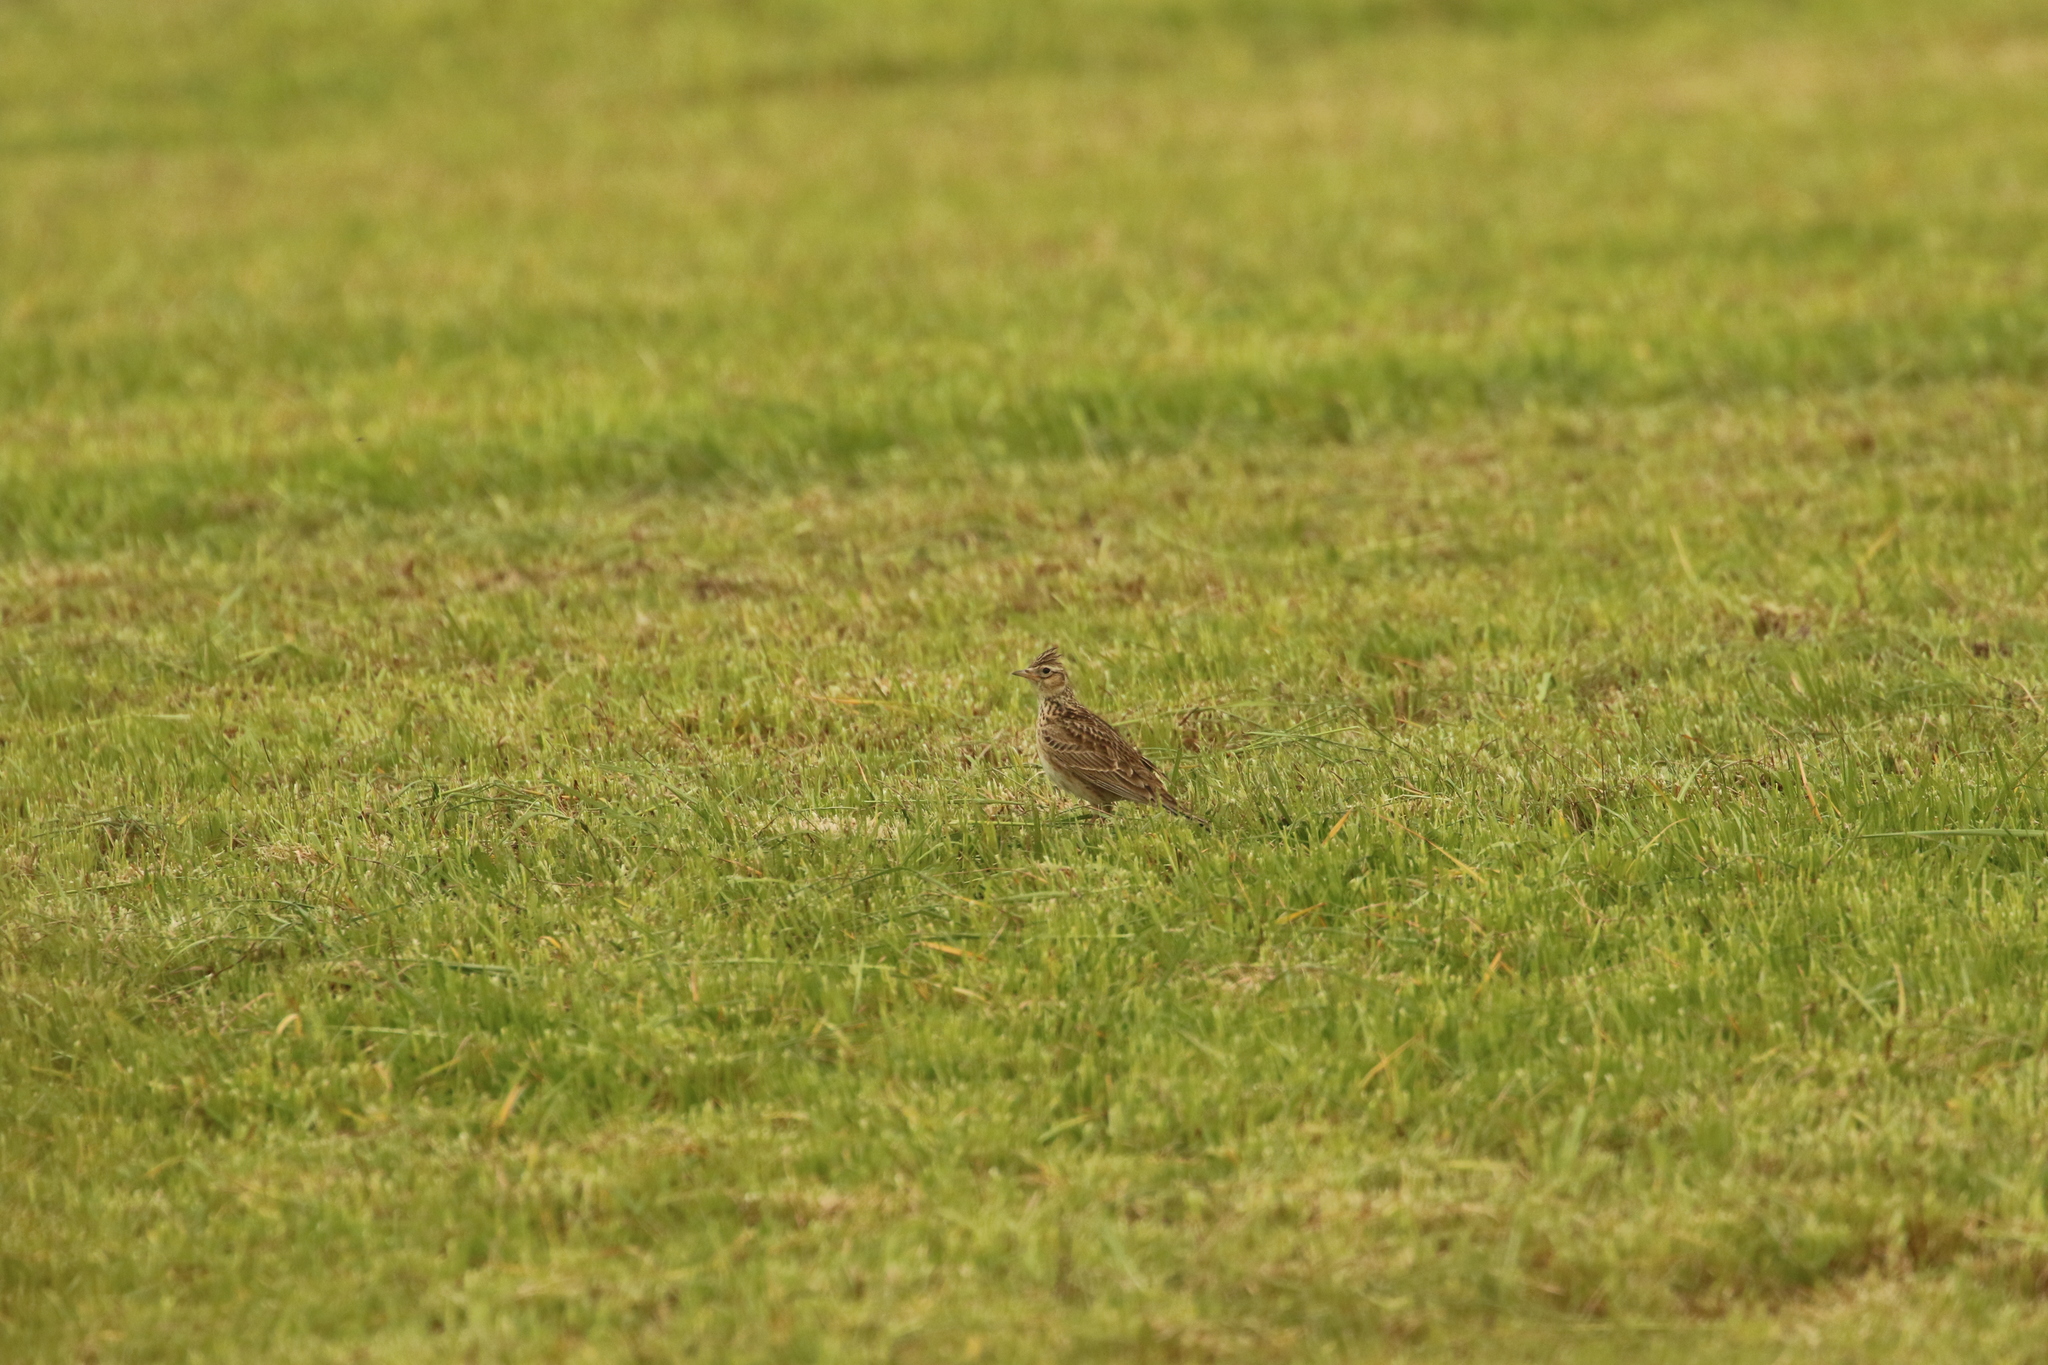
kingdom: Animalia
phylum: Chordata
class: Aves
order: Passeriformes
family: Alaudidae
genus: Alauda
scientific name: Alauda arvensis
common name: Eurasian skylark
